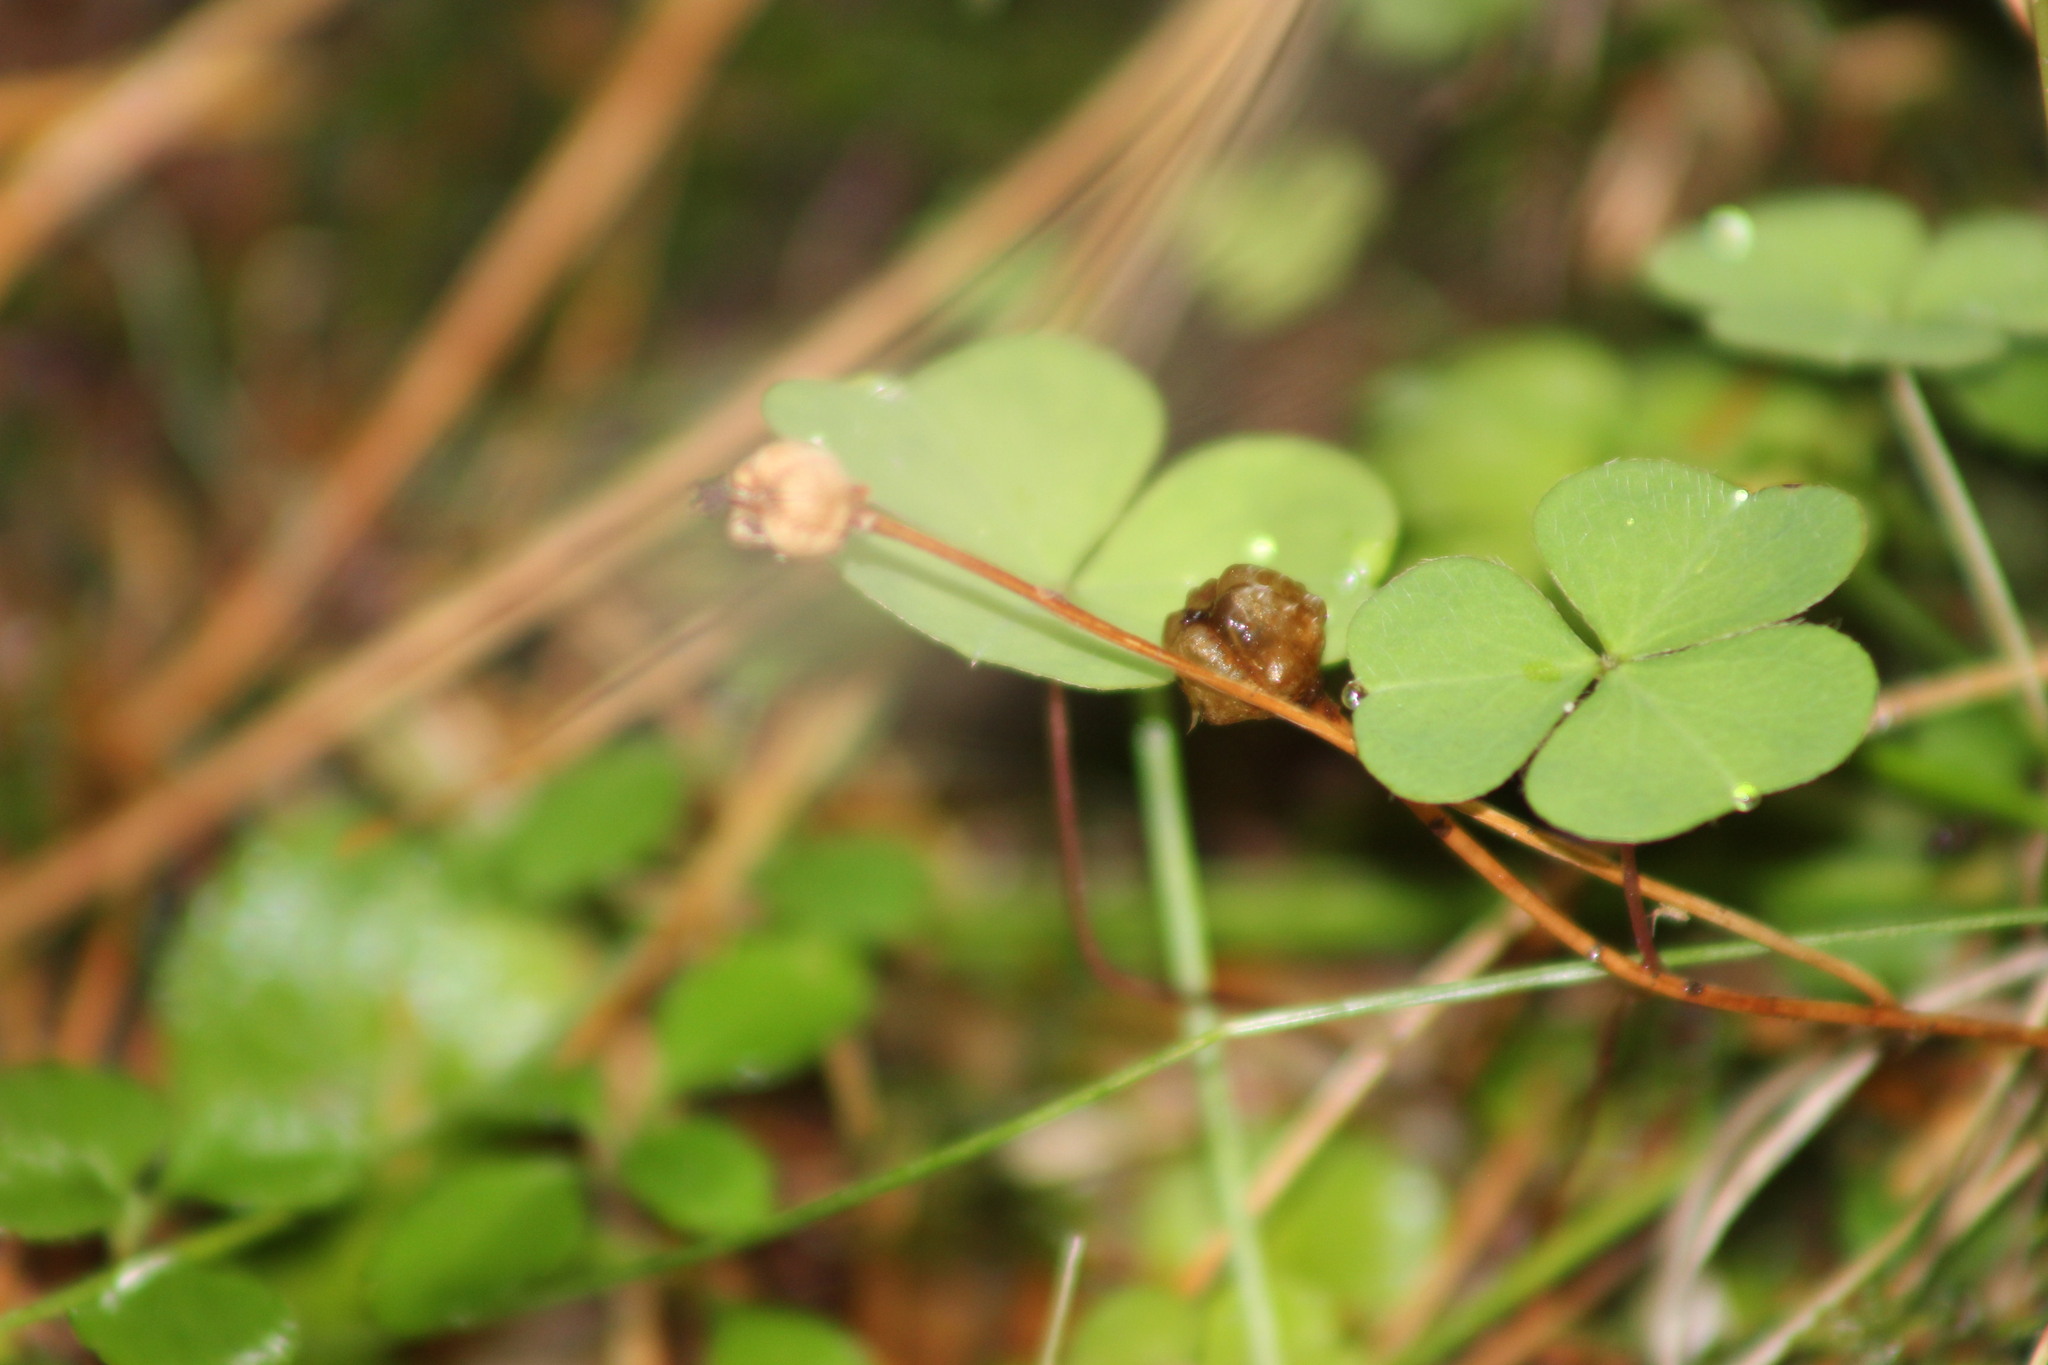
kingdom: Plantae
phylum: Tracheophyta
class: Magnoliopsida
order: Ericales
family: Ericaceae
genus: Moneses
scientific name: Moneses uniflora
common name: One-flowered wintergreen
